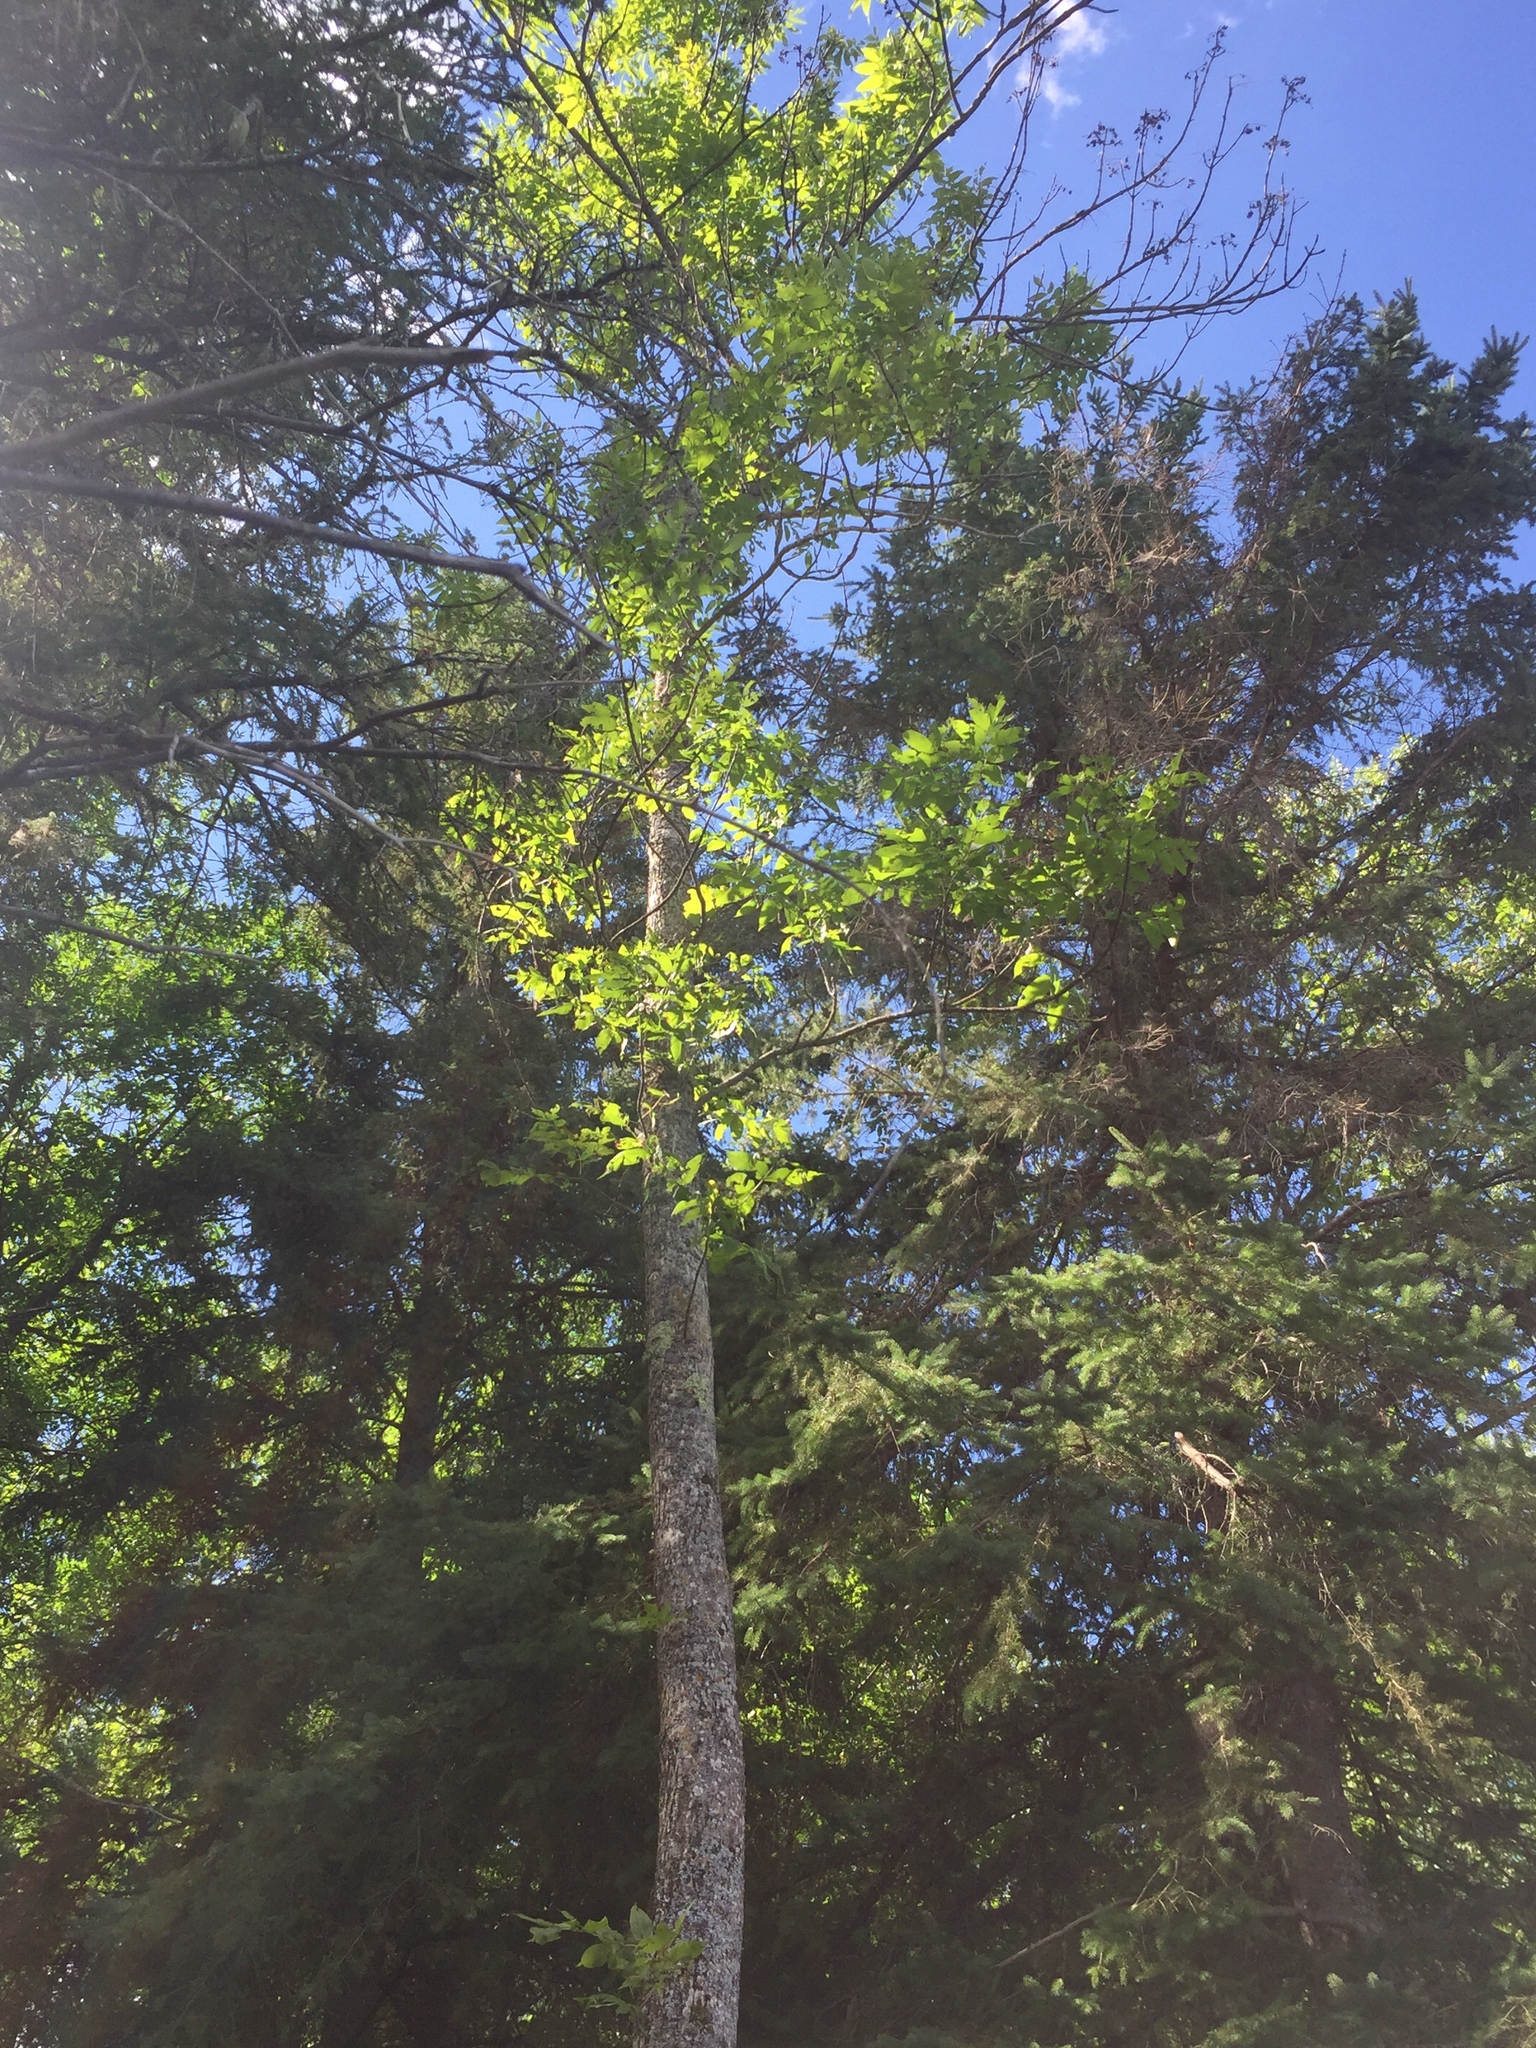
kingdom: Plantae
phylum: Tracheophyta
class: Magnoliopsida
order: Lamiales
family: Oleaceae
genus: Fraxinus
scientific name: Fraxinus nigra
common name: Black ash
